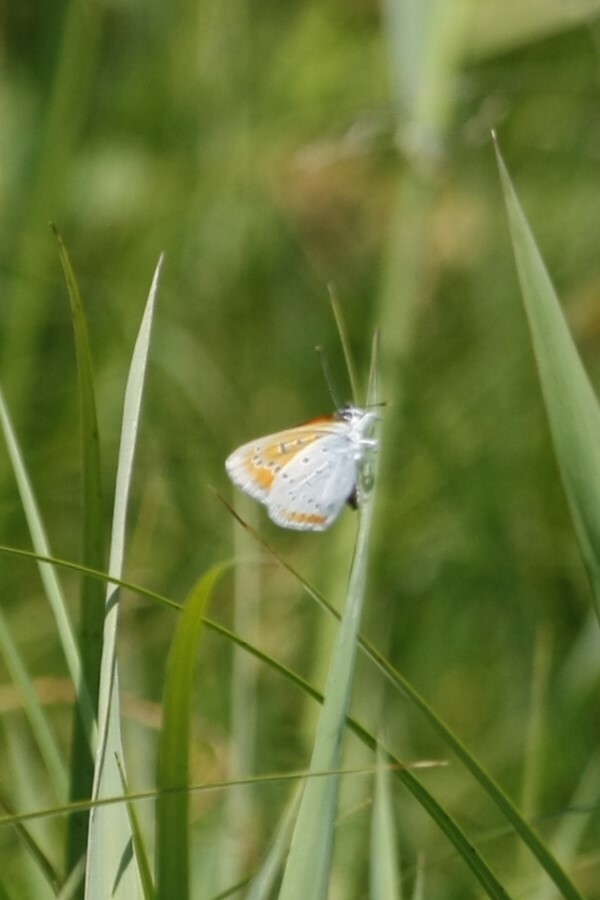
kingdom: Animalia
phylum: Arthropoda
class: Insecta
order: Lepidoptera
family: Lycaenidae
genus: Lycaena
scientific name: Lycaena dispar
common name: Large copper
